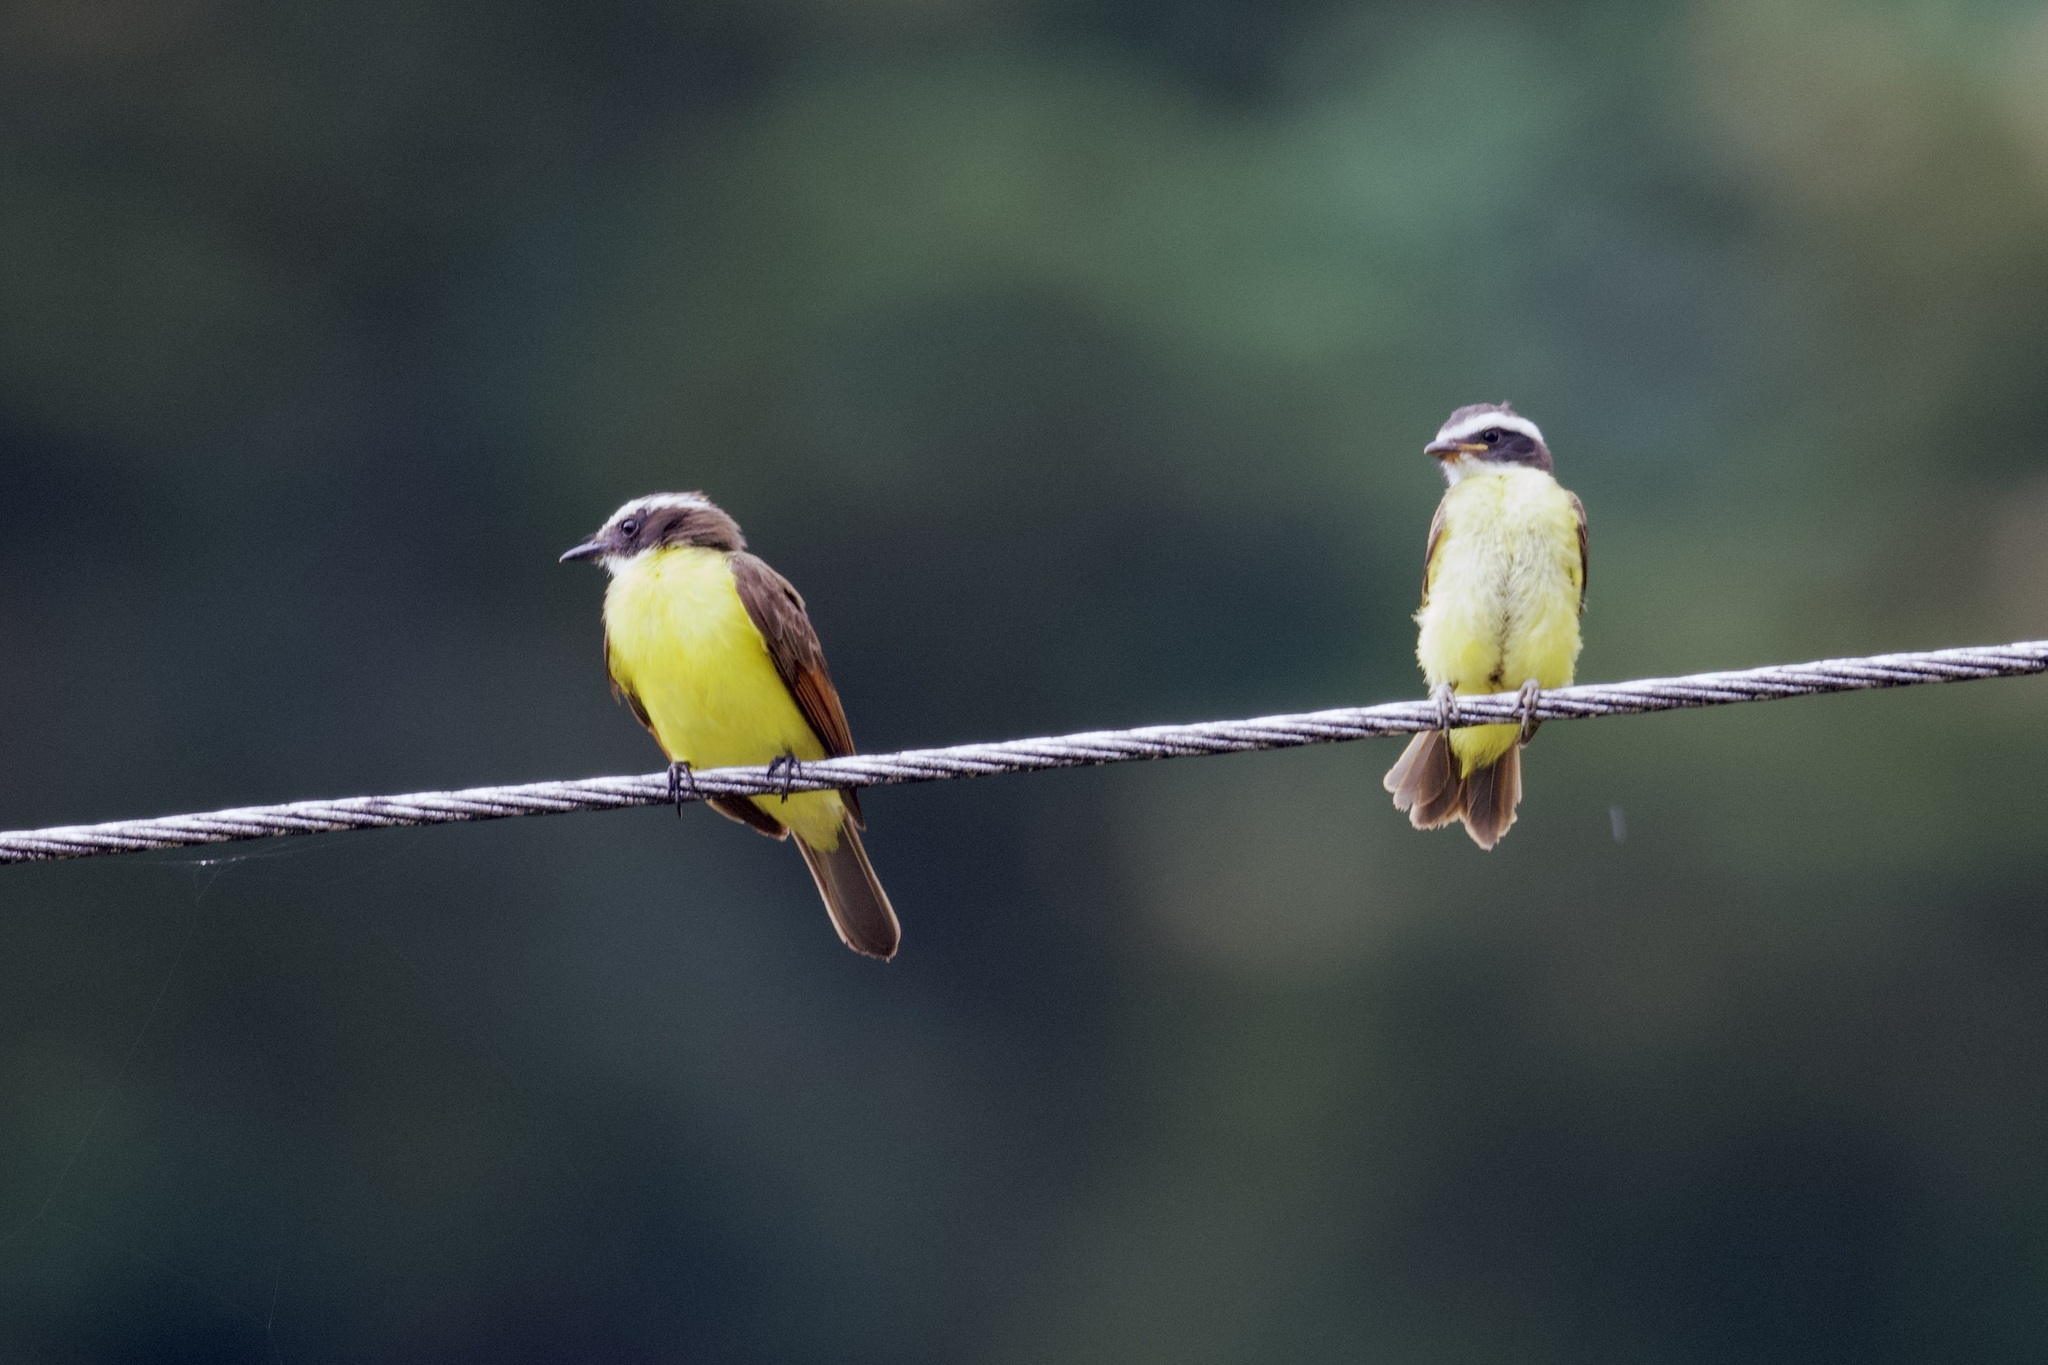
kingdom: Animalia
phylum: Chordata
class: Aves
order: Passeriformes
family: Tyrannidae
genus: Myiozetetes
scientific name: Myiozetetes cayanensis
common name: Rusty-margined flycatcher
